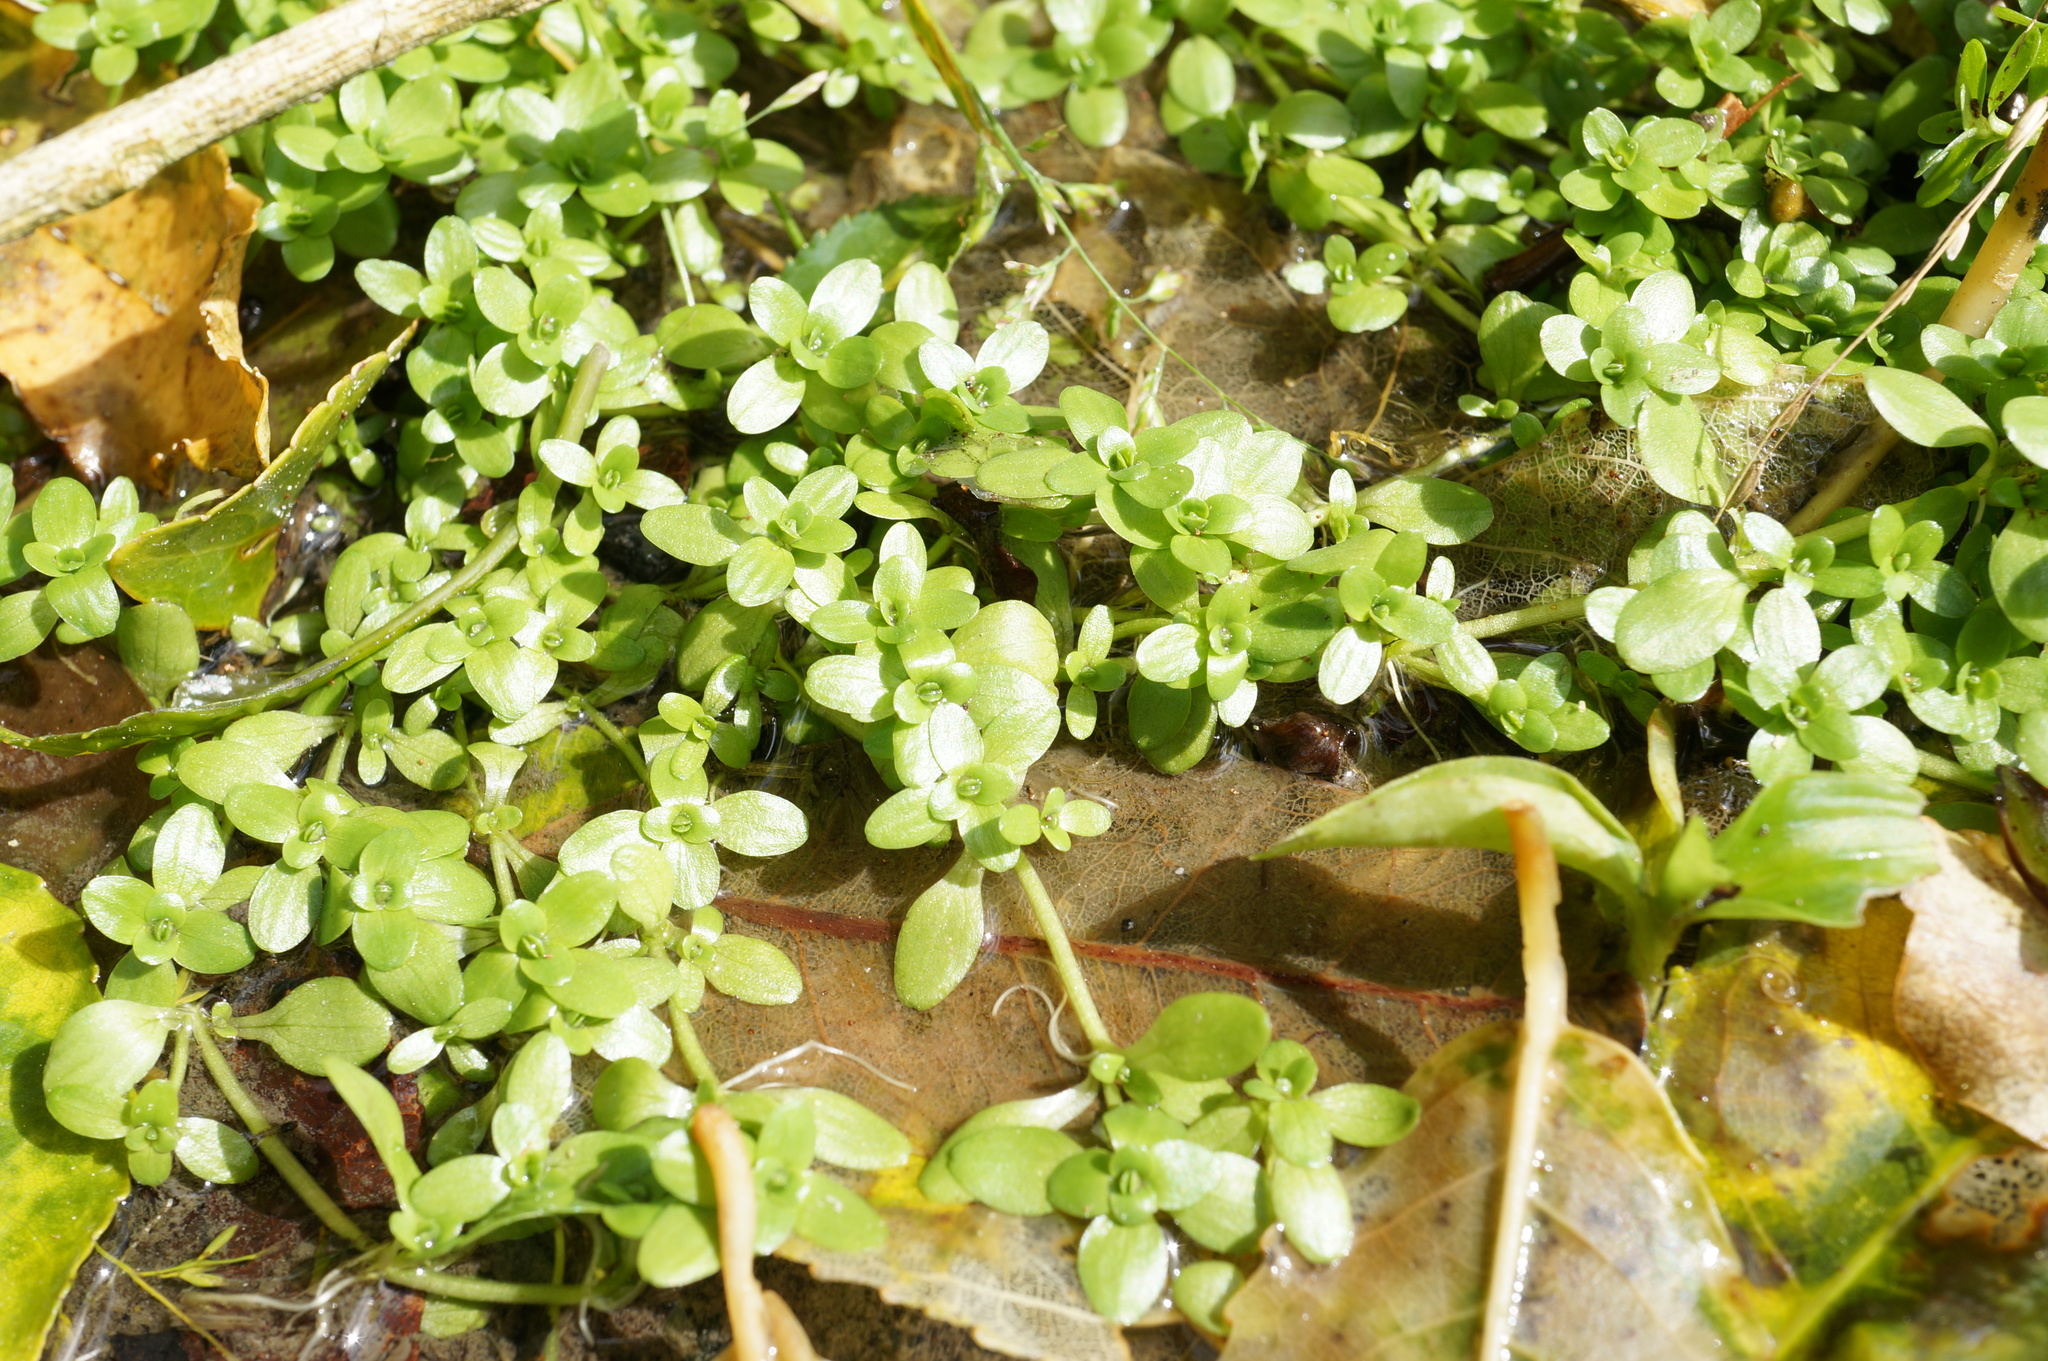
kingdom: Plantae
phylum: Tracheophyta
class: Magnoliopsida
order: Lamiales
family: Plantaginaceae
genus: Callitriche
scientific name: Callitriche stagnalis
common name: Common water-starwort
